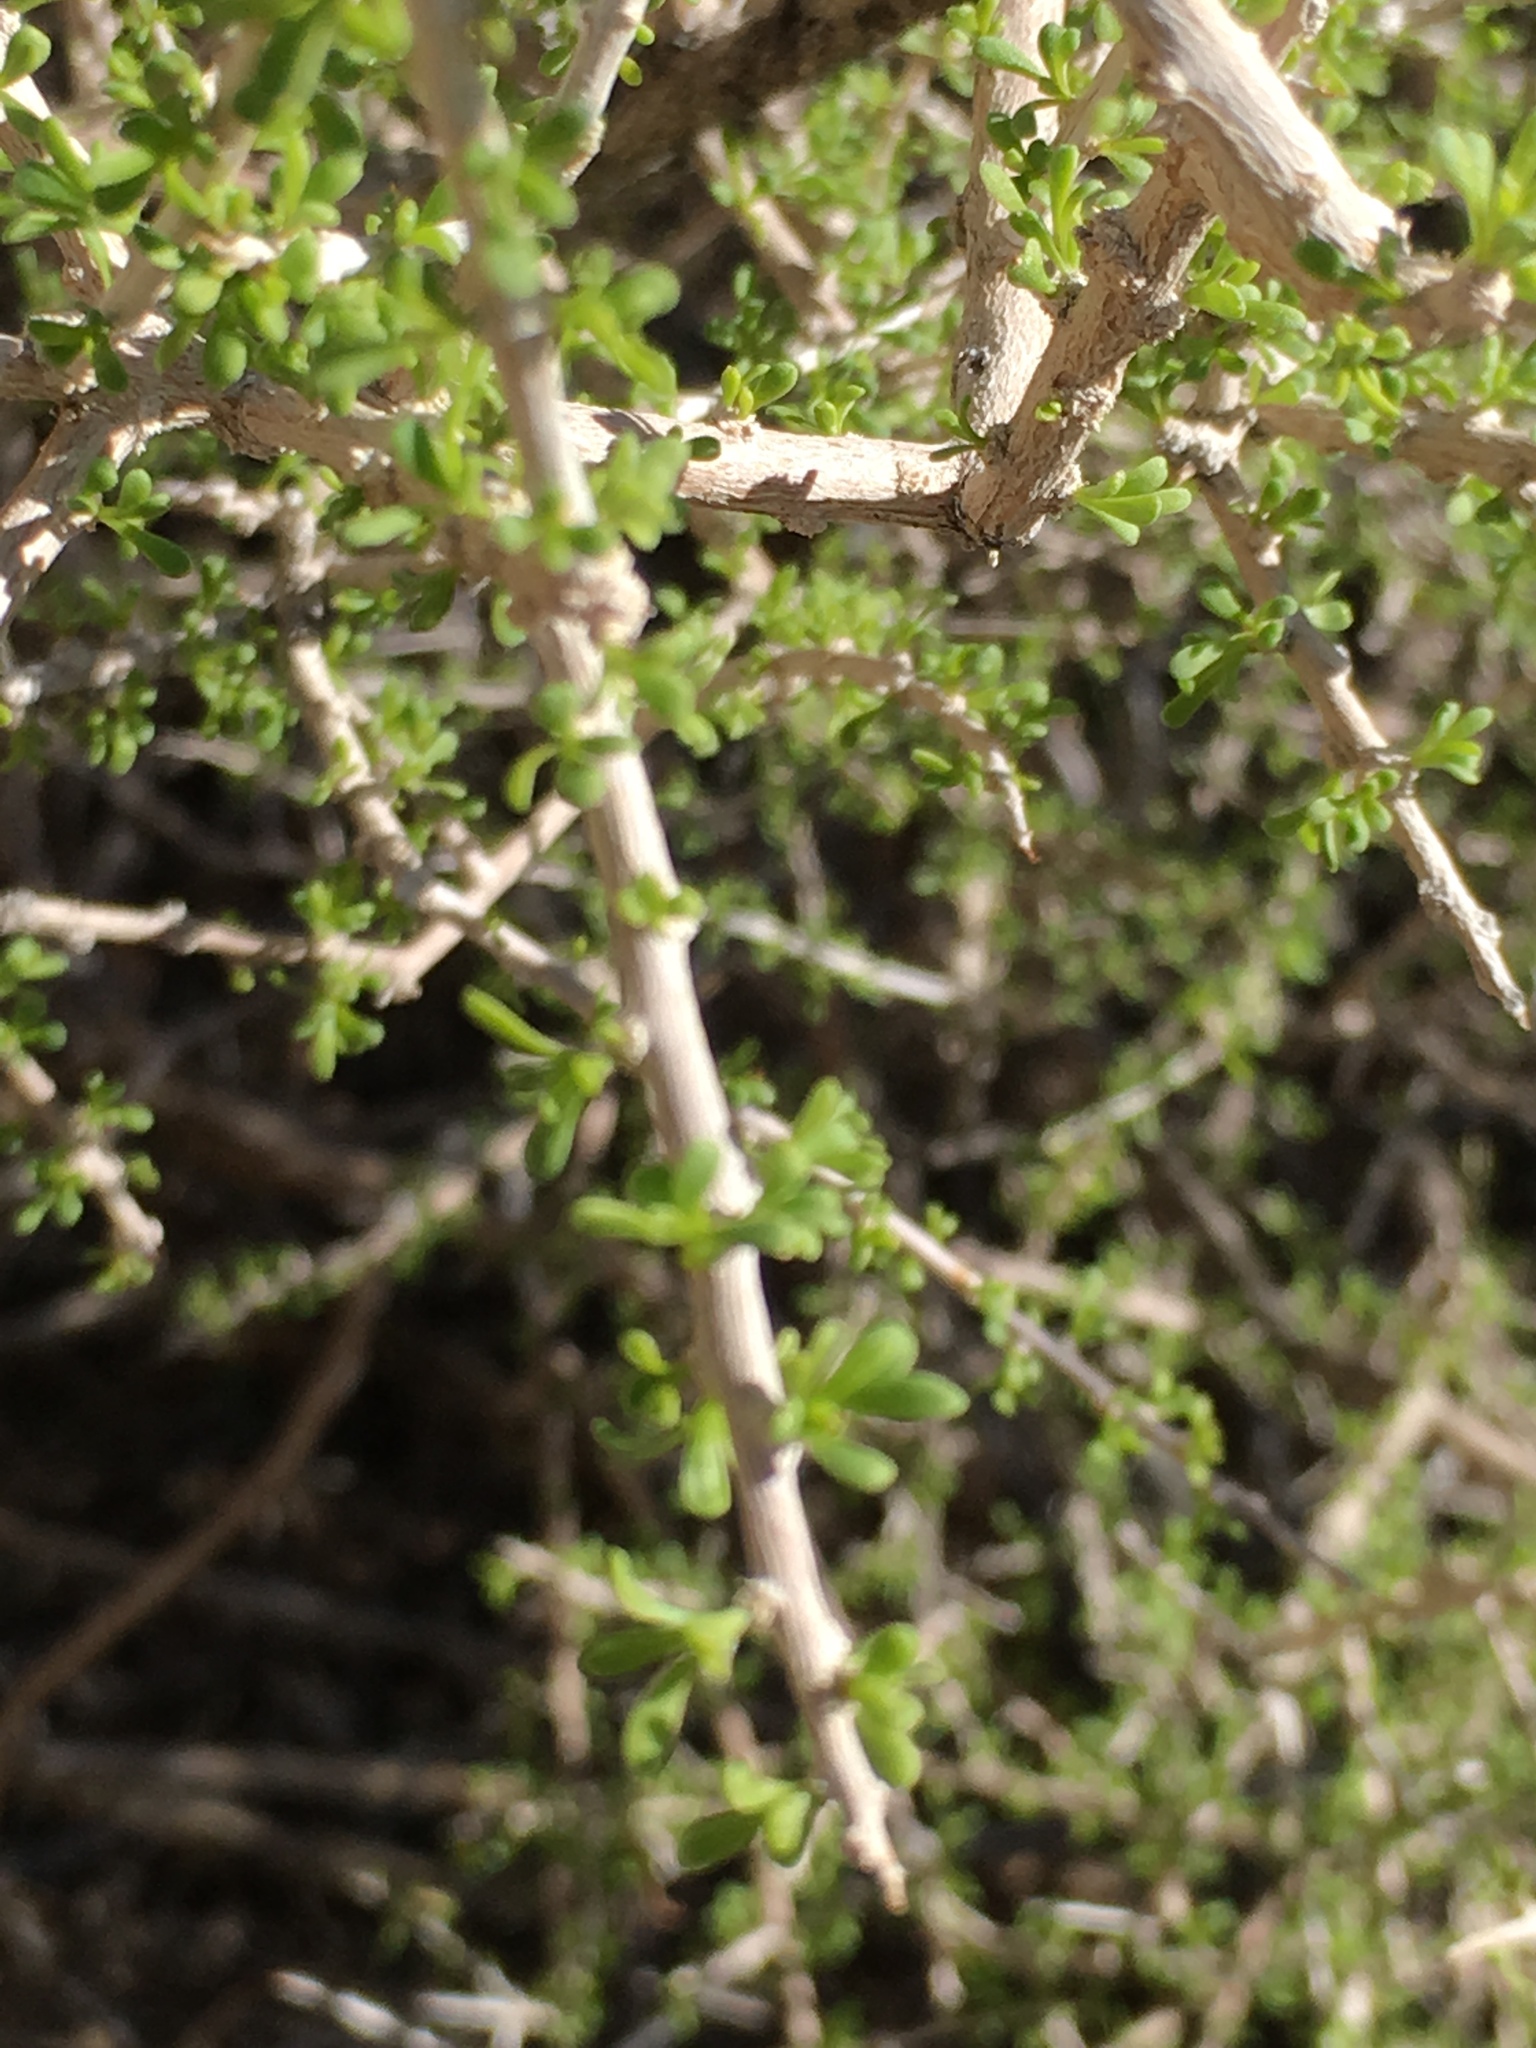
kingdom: Plantae
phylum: Tracheophyta
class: Magnoliopsida
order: Solanales
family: Solanaceae
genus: Lycium
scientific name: Lycium andersonii
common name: Water-jacket
